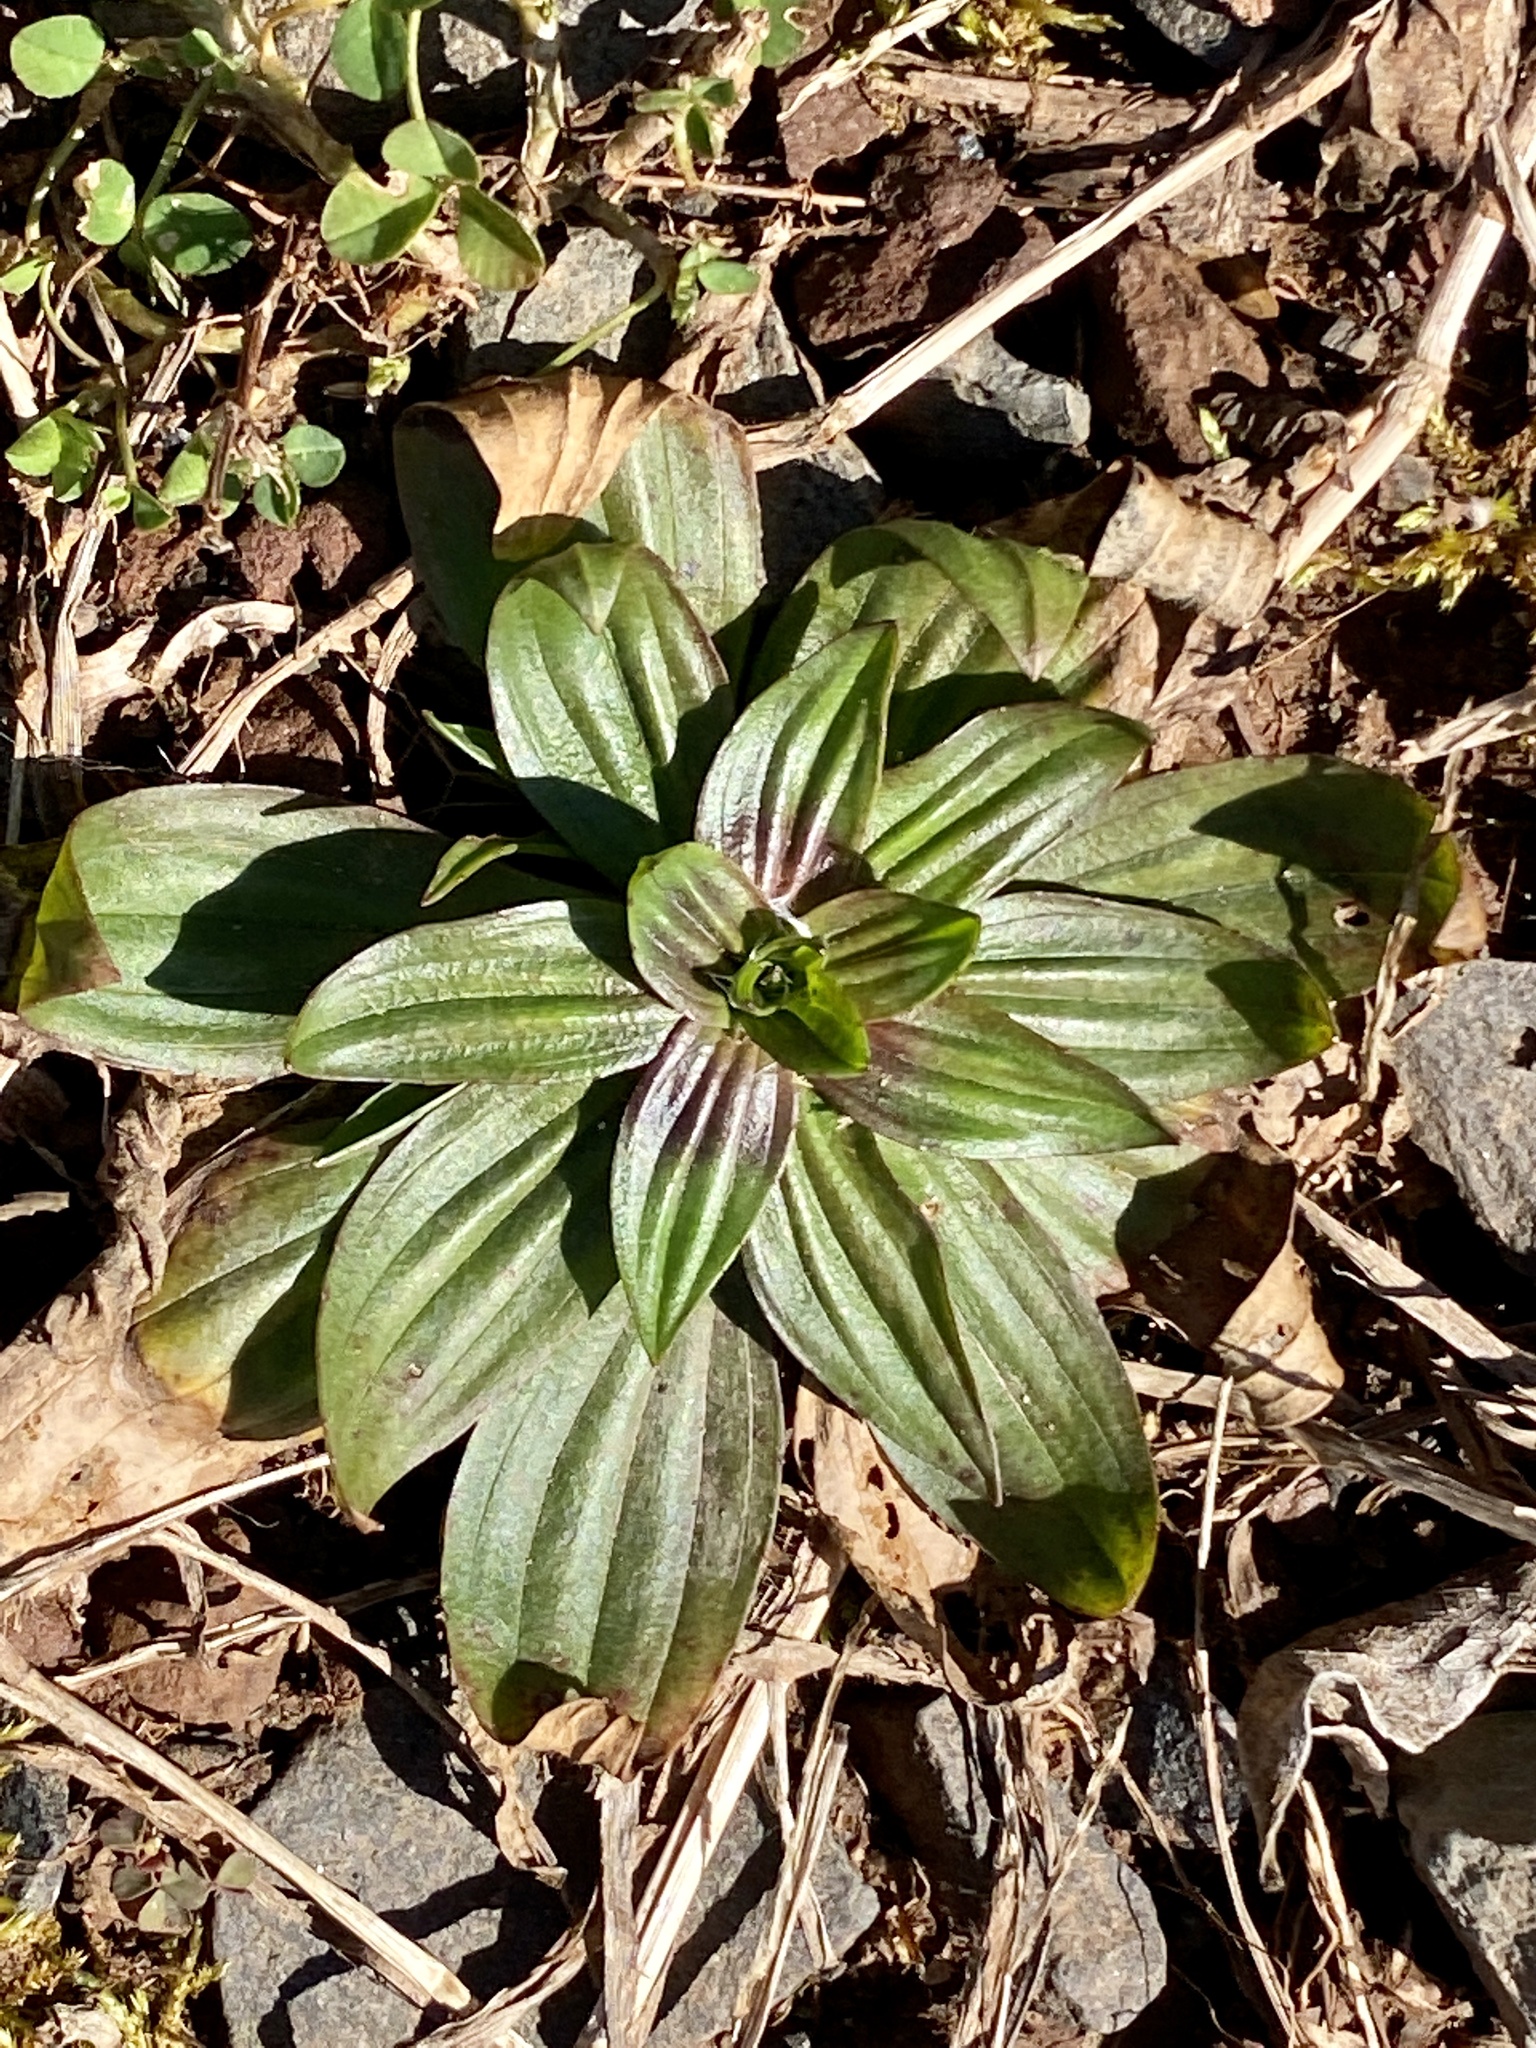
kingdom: Plantae
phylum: Tracheophyta
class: Magnoliopsida
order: Lamiales
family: Plantaginaceae
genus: Plantago
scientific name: Plantago lanceolata
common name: Ribwort plantain
